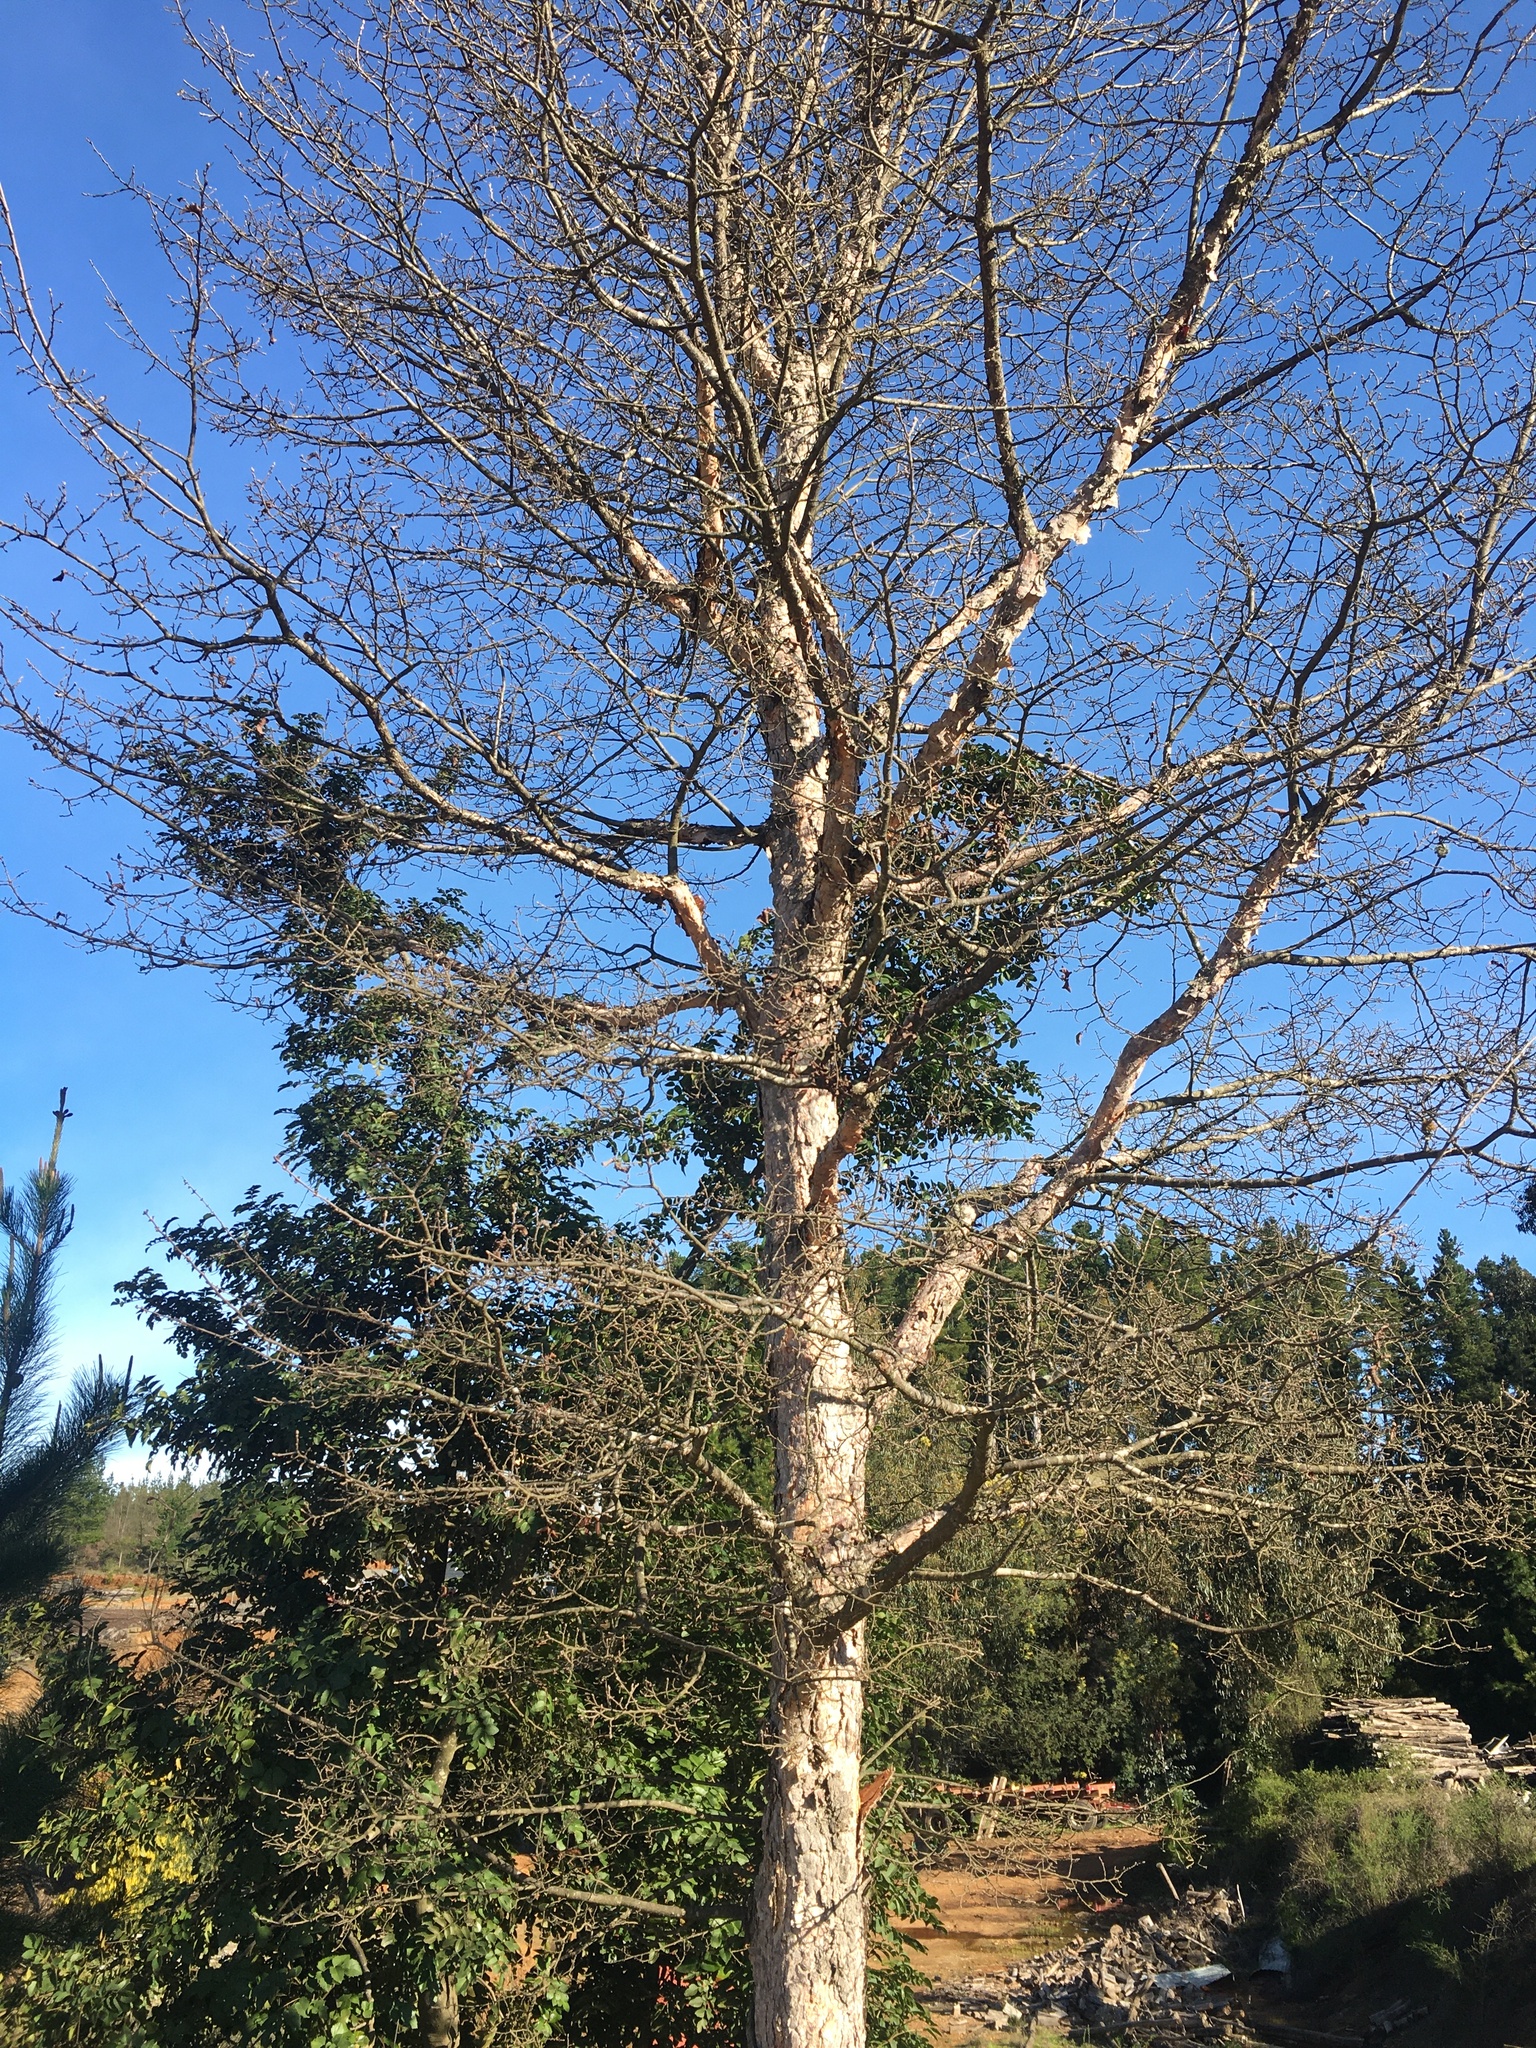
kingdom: Plantae
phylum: Tracheophyta
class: Magnoliopsida
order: Fagales
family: Nothofagaceae
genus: Nothofagus
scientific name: Nothofagus glauca
